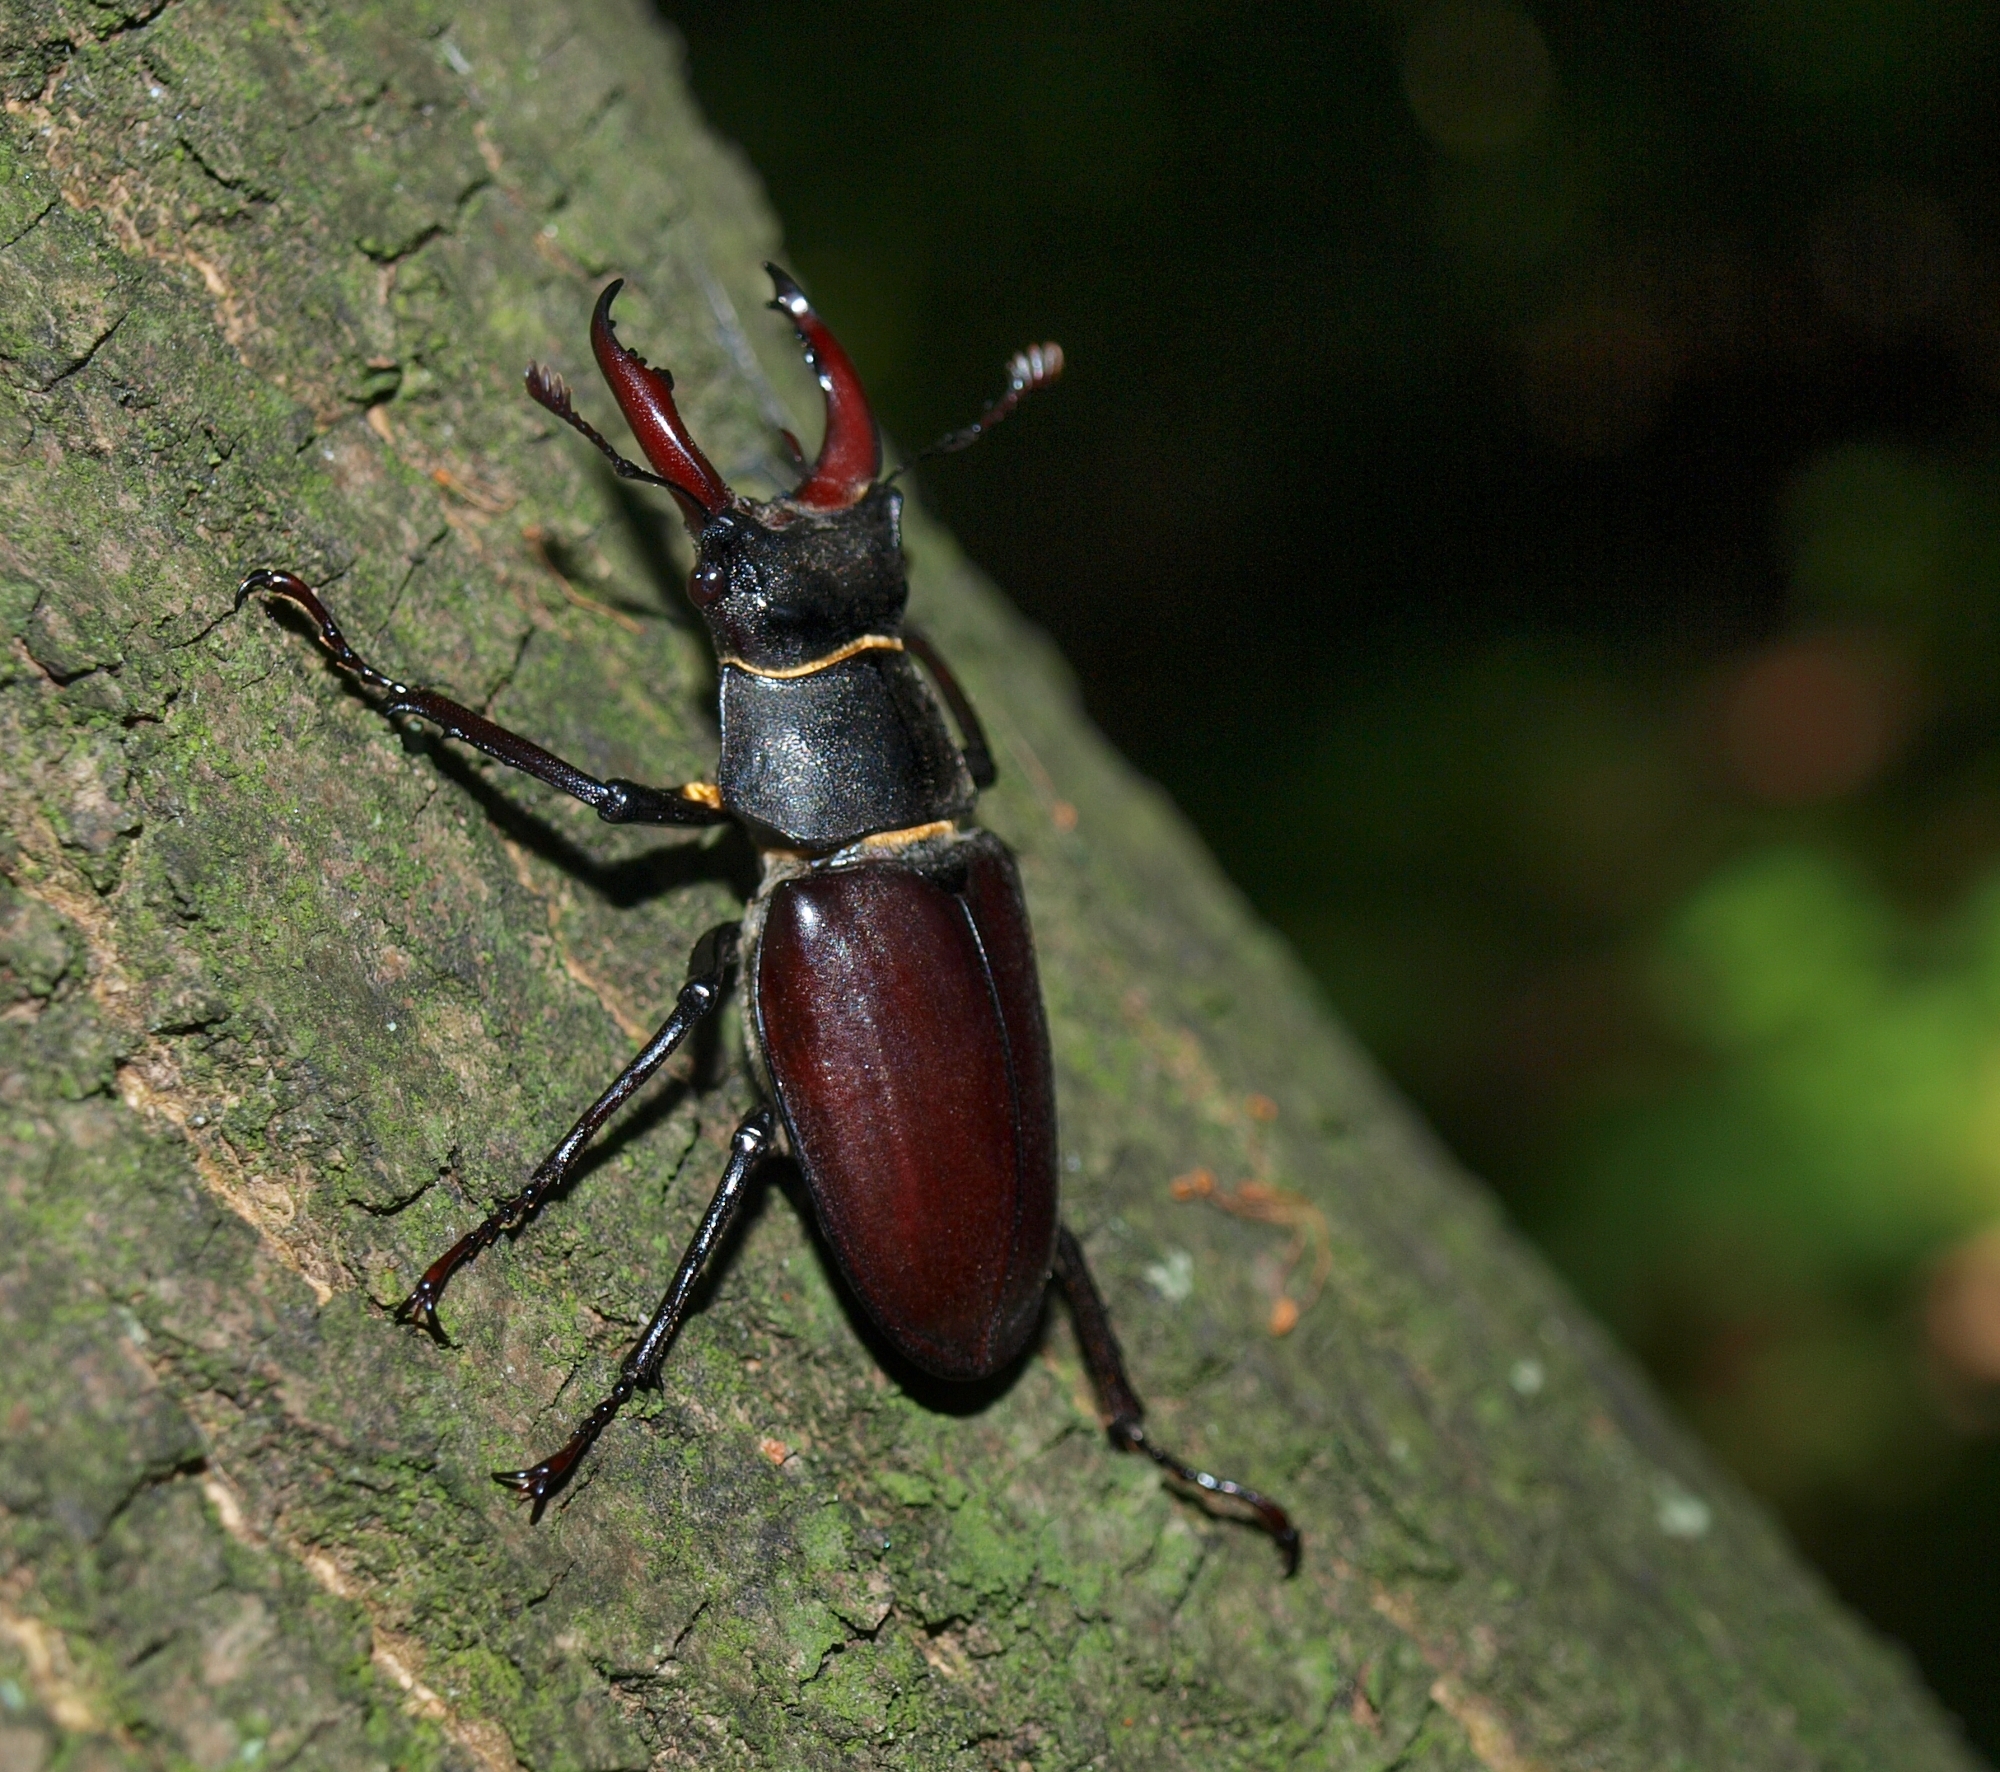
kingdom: Animalia
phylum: Arthropoda
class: Insecta
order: Coleoptera
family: Lucanidae
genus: Lucanus
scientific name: Lucanus cervus
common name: Stag beetle
